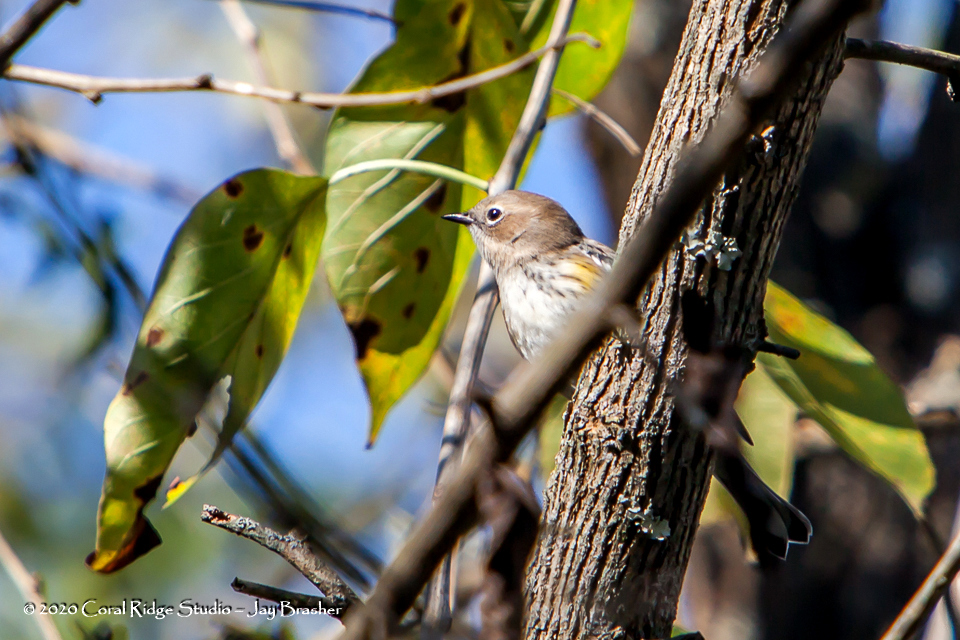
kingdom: Animalia
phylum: Chordata
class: Aves
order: Passeriformes
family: Parulidae
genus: Setophaga
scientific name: Setophaga coronata
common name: Myrtle warbler
